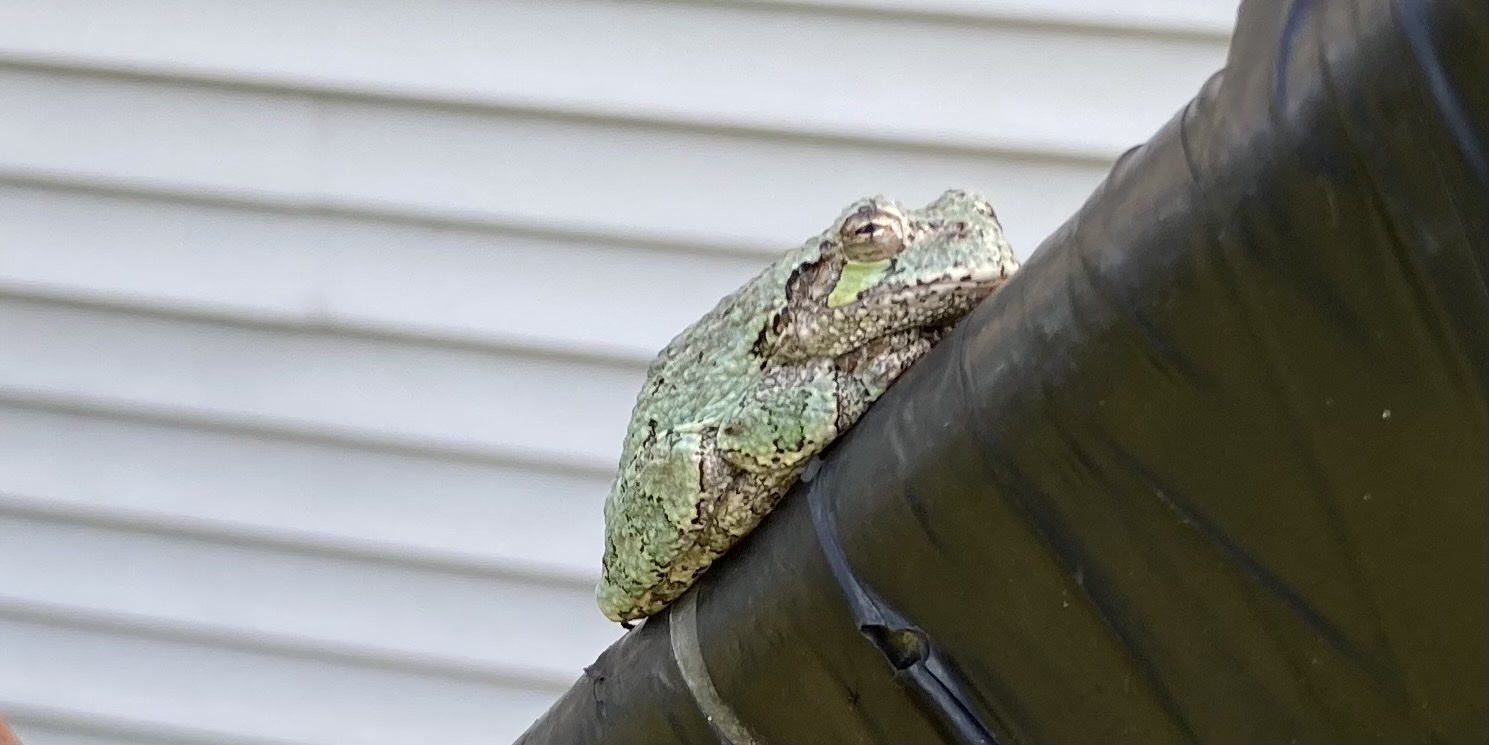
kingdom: Animalia
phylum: Chordata
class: Amphibia
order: Anura
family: Hylidae
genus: Hyla
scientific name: Hyla
